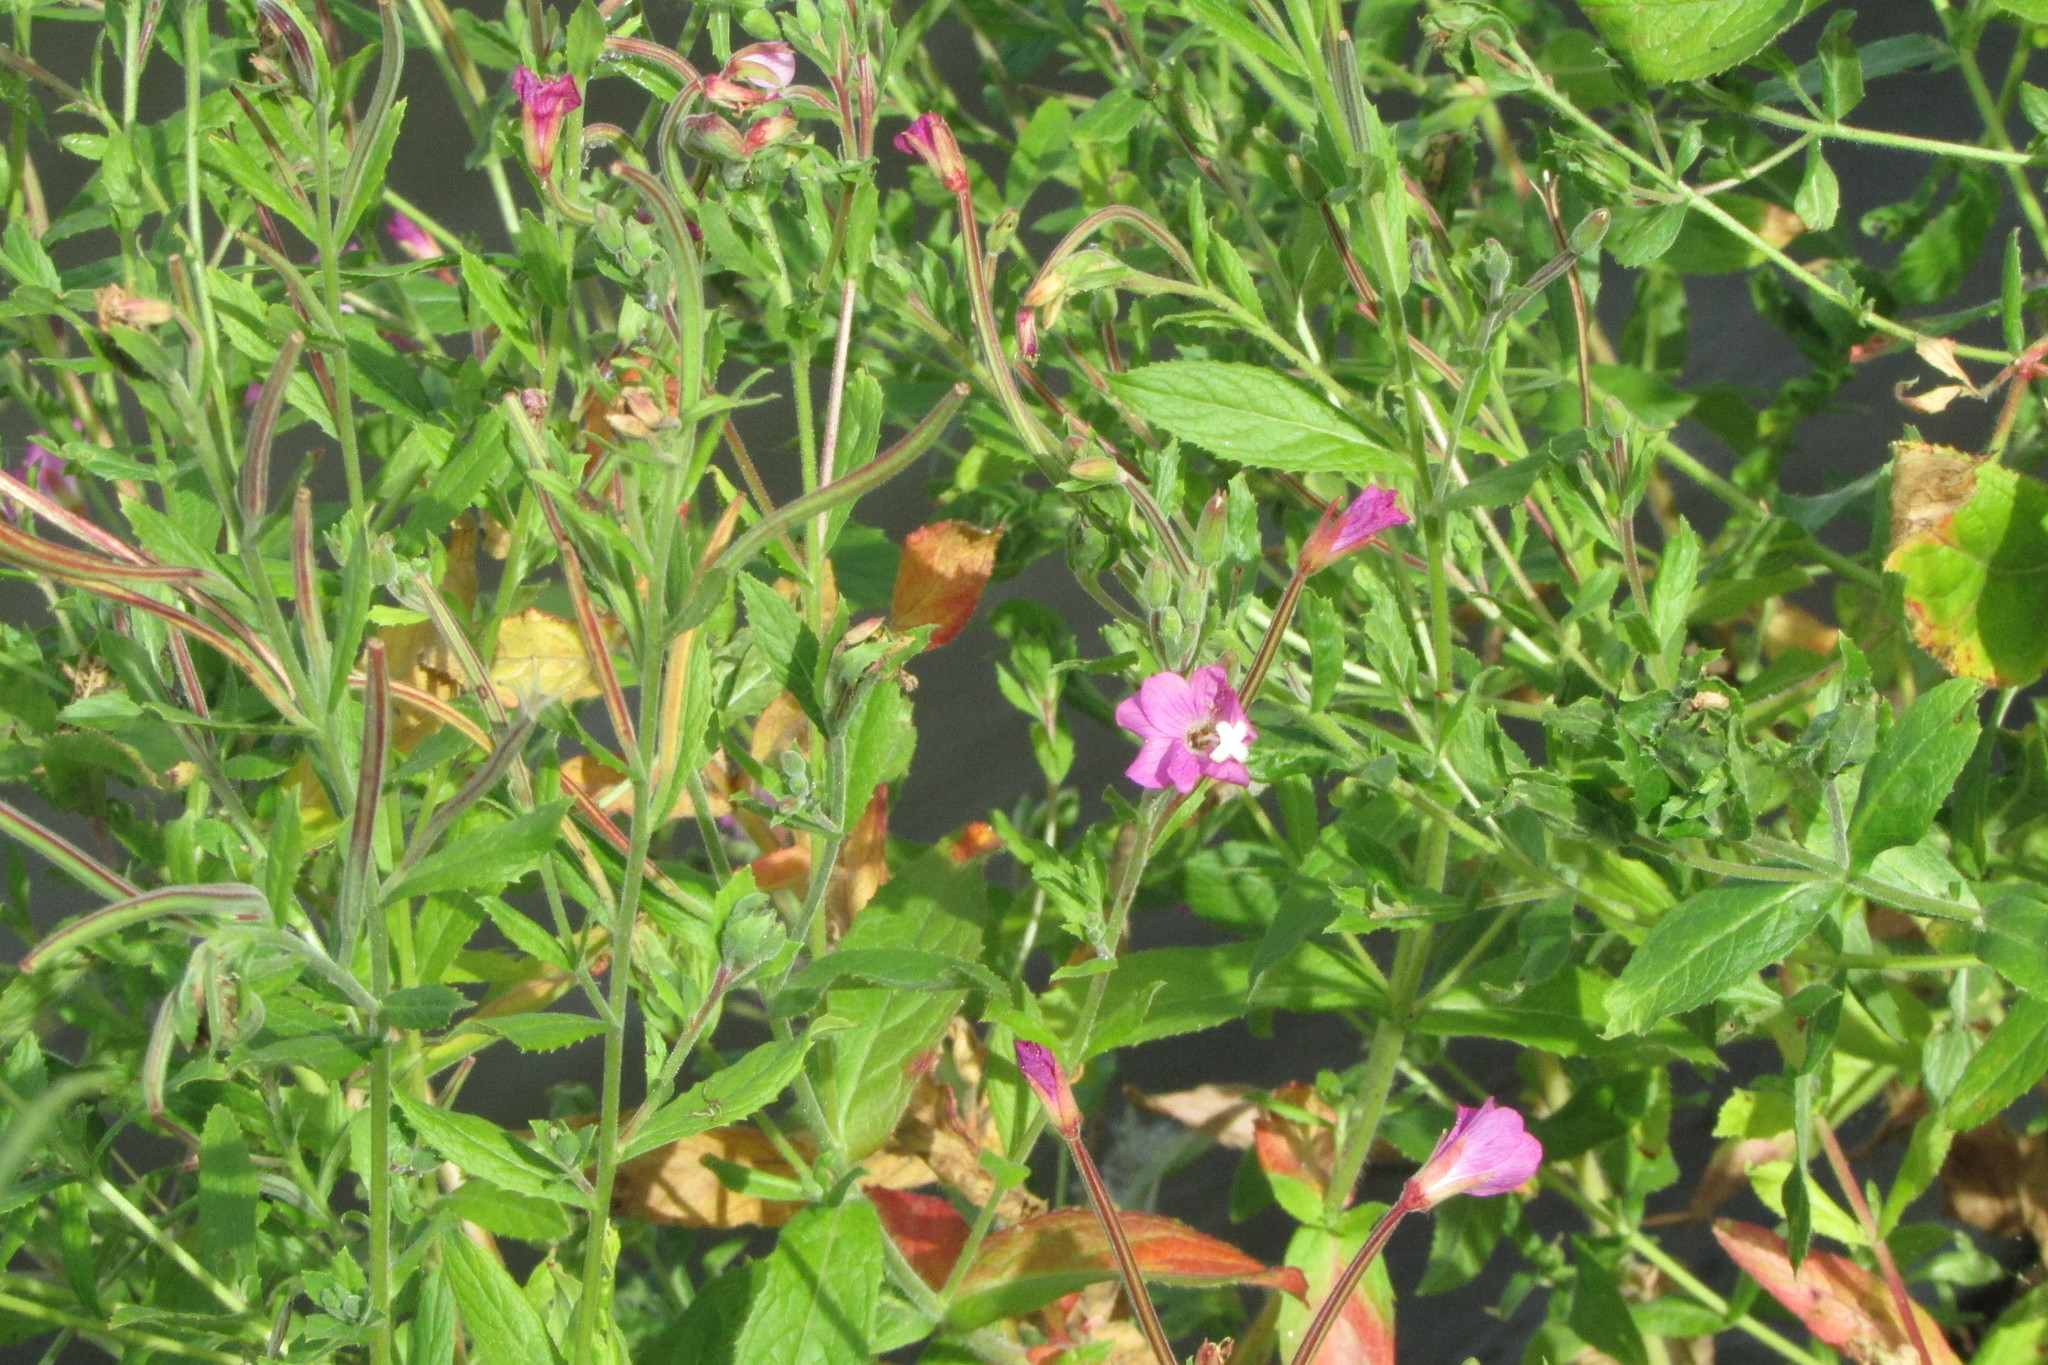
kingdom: Plantae
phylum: Tracheophyta
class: Magnoliopsida
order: Myrtales
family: Onagraceae
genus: Epilobium
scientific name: Epilobium hirsutum
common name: Great willowherb
